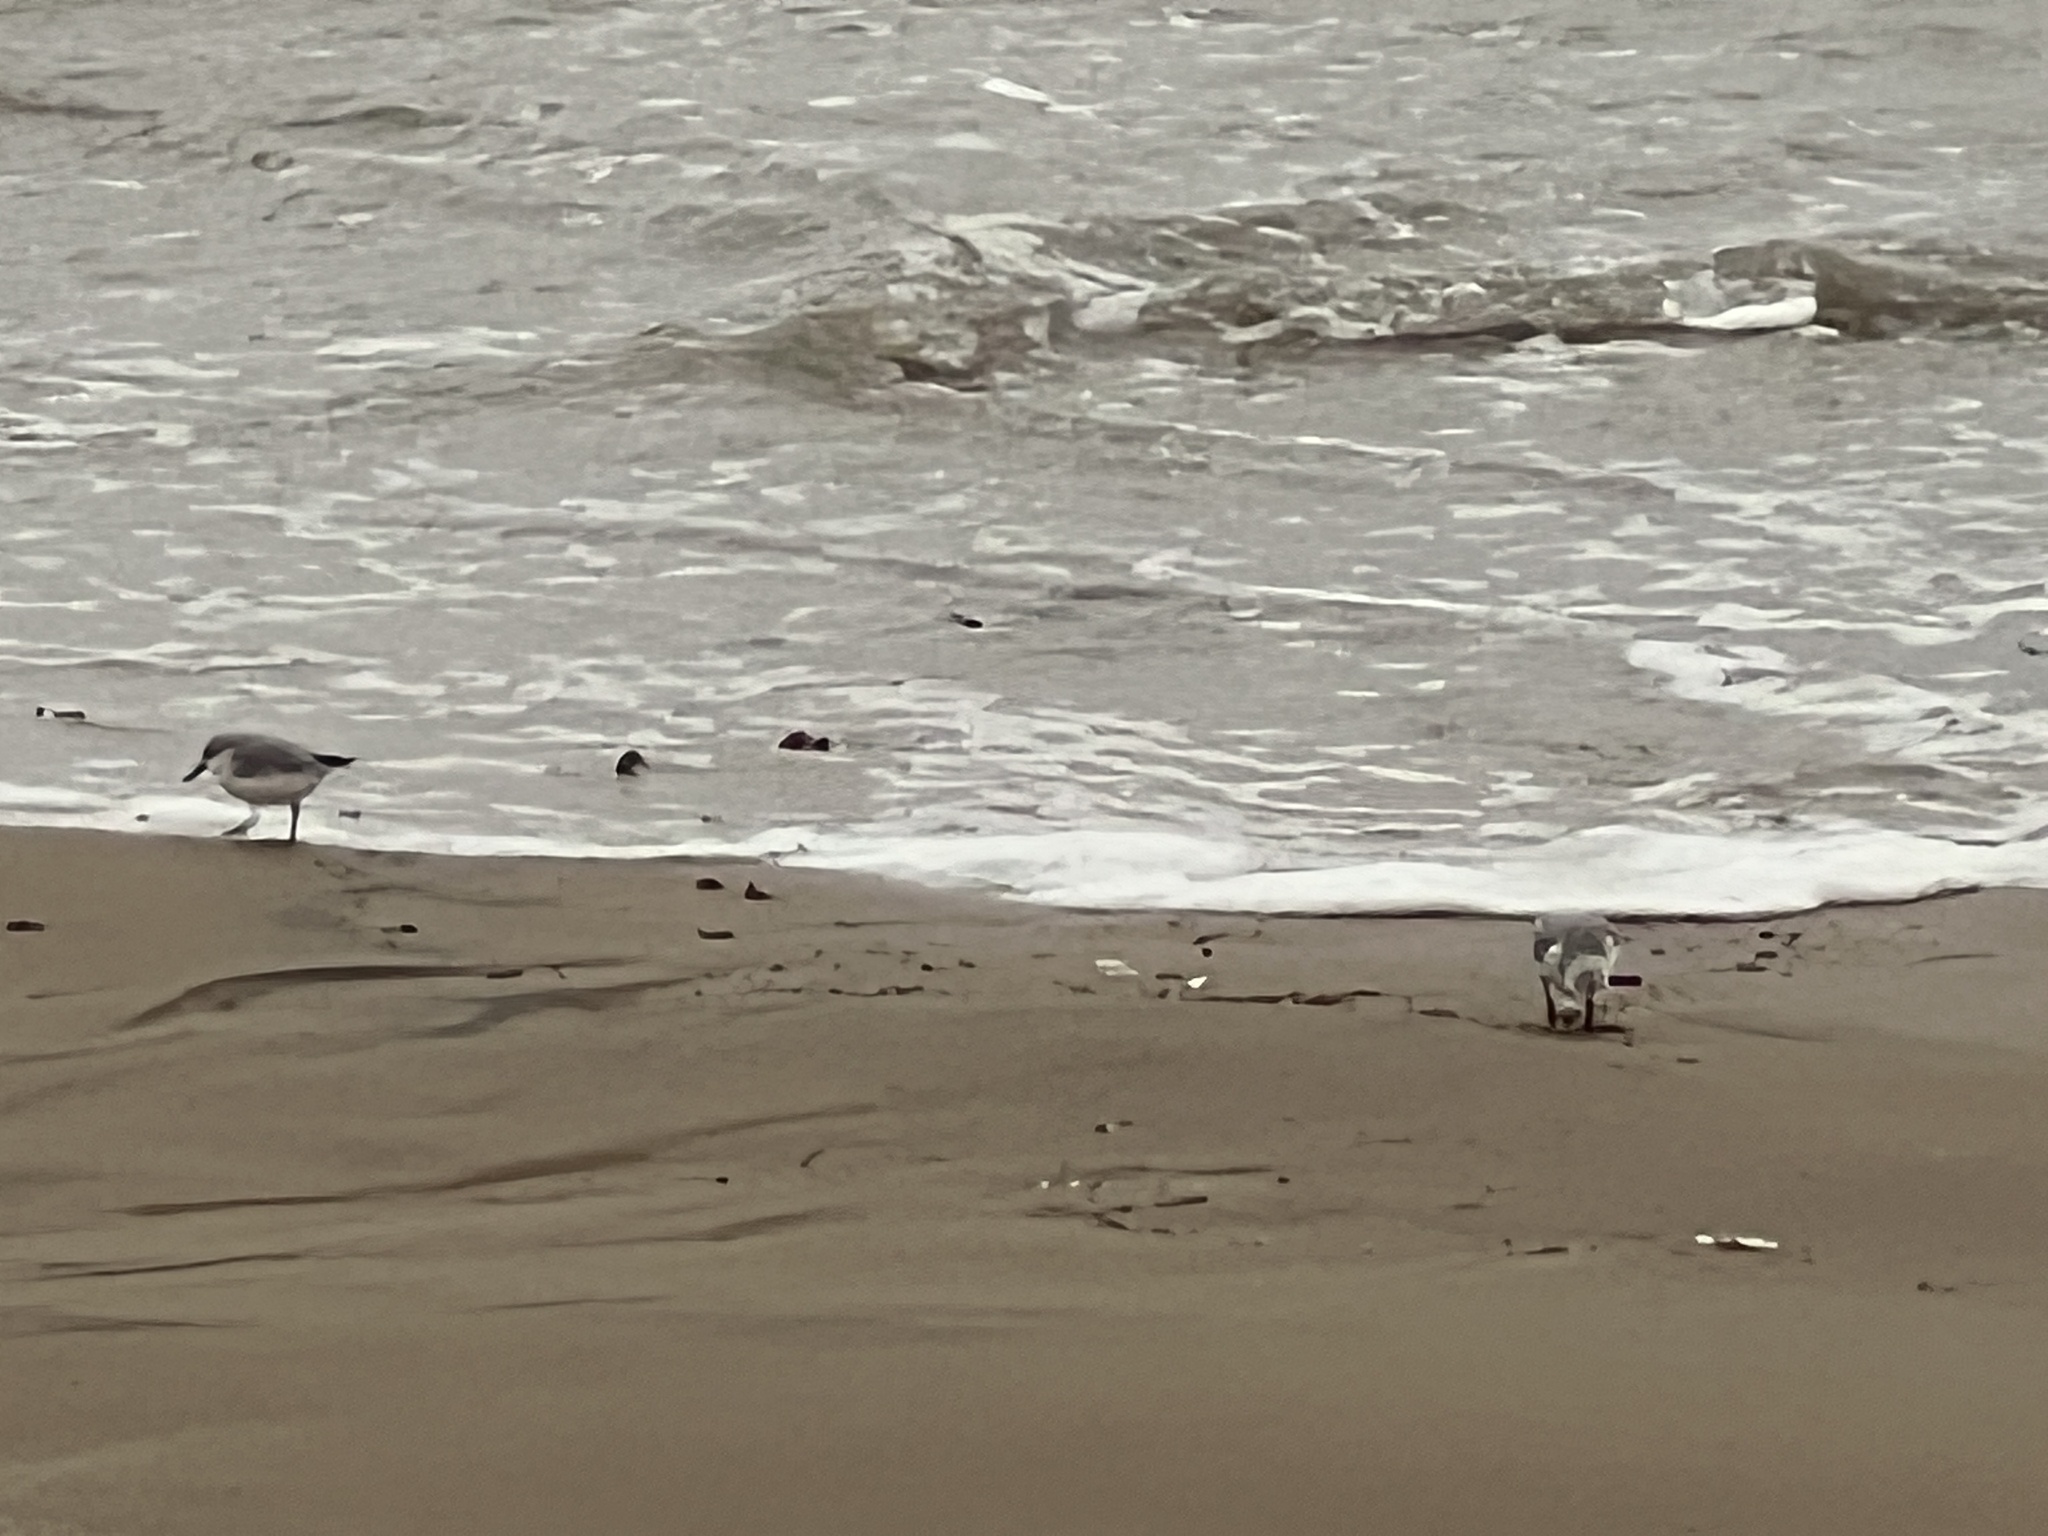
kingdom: Animalia
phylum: Chordata
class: Aves
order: Charadriiformes
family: Scolopacidae
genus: Calidris
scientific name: Calidris alba
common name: Sanderling
